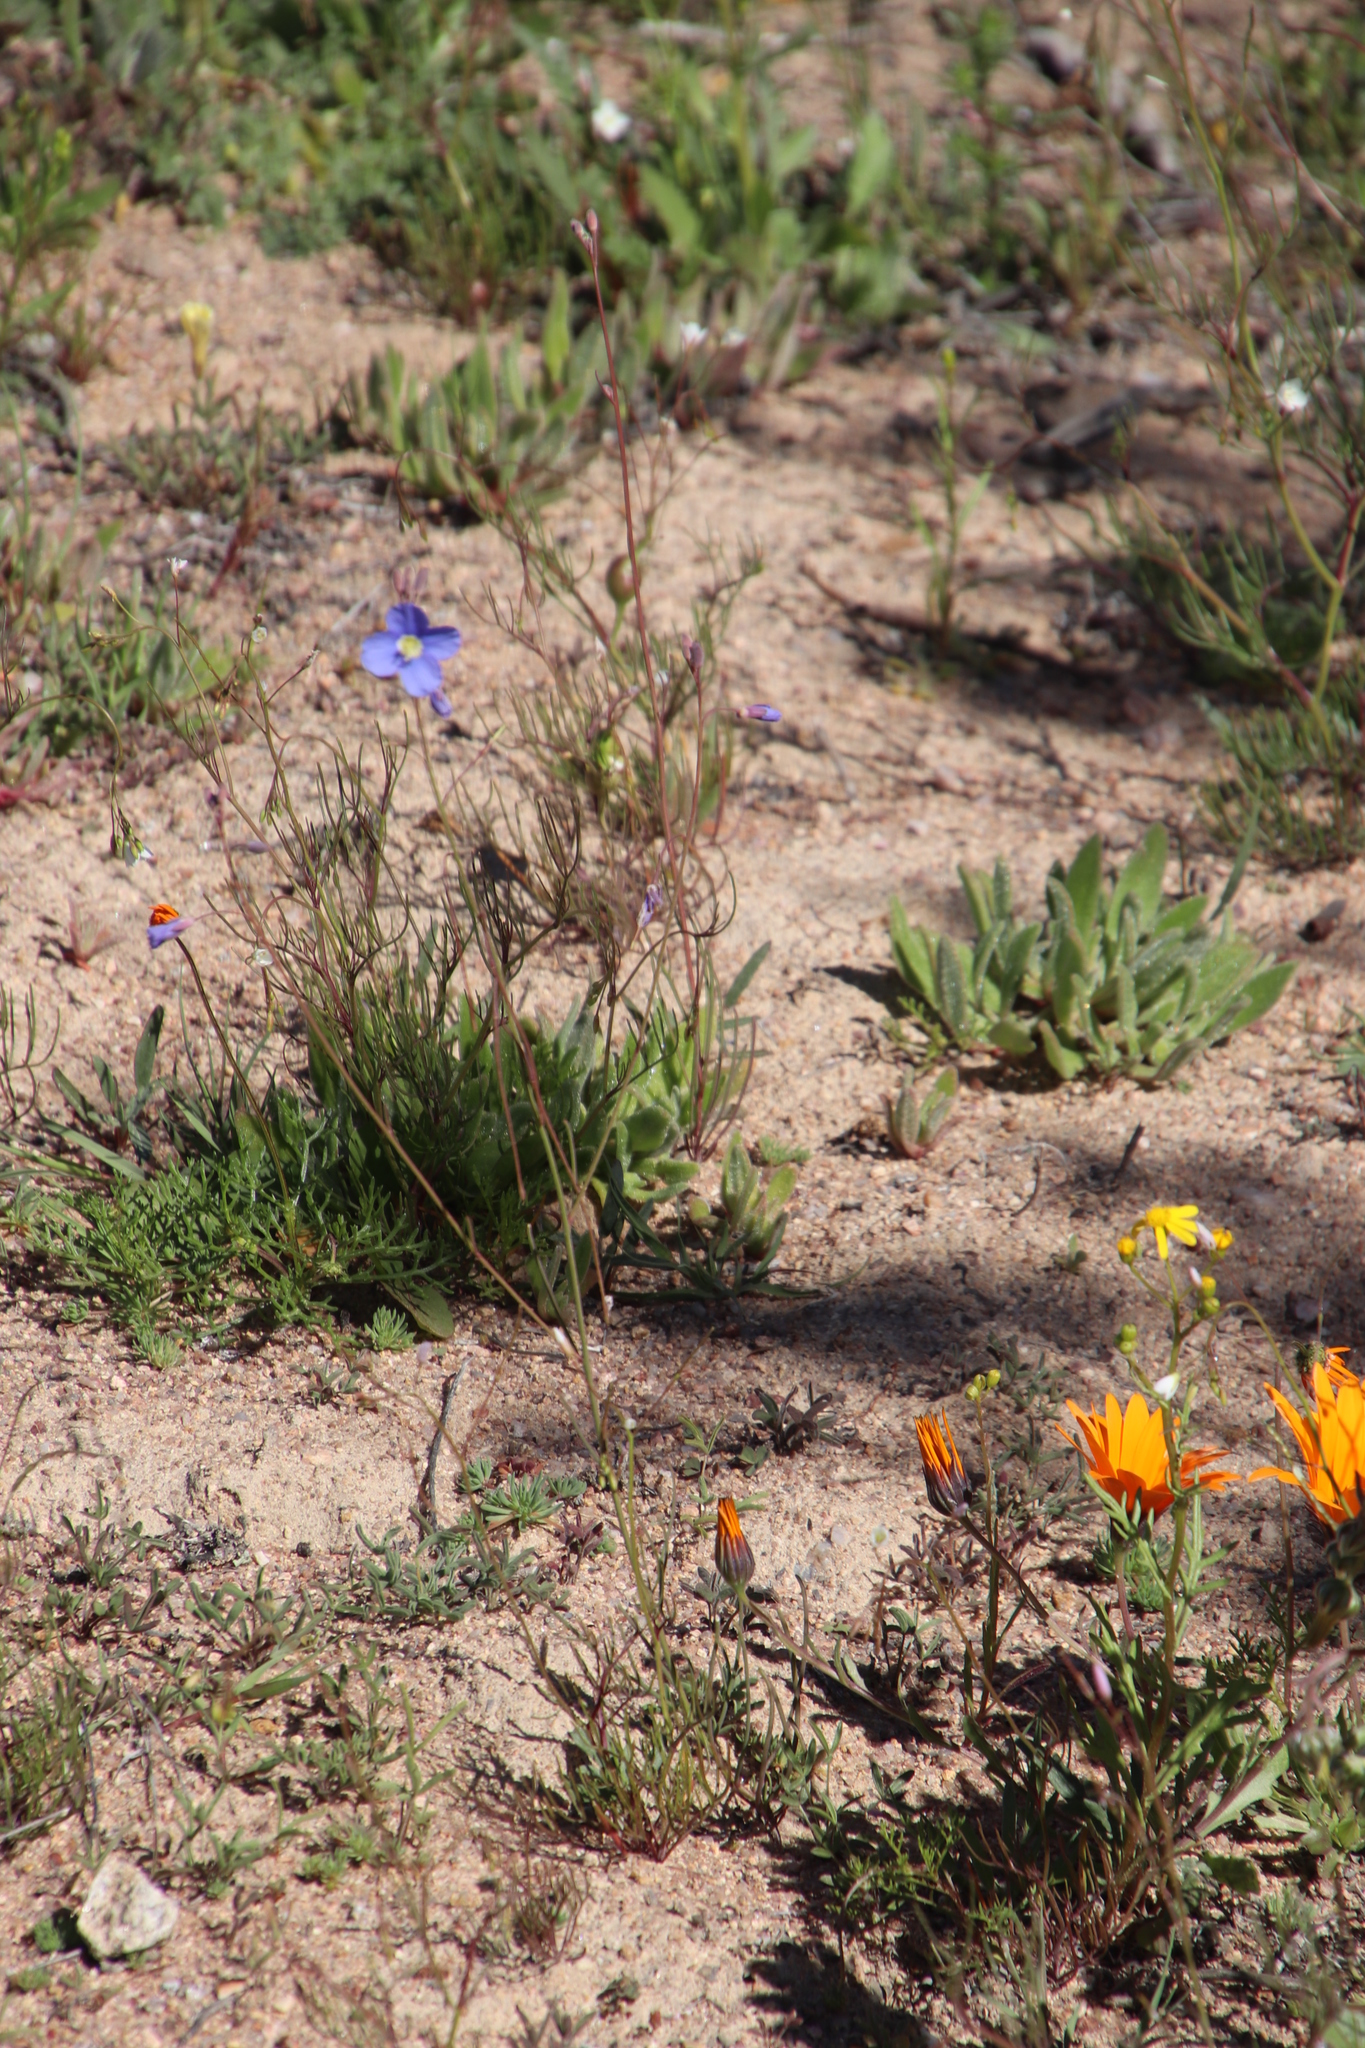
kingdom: Plantae
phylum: Tracheophyta
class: Magnoliopsida
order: Brassicales
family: Brassicaceae
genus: Heliophila
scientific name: Heliophila leptophylla
